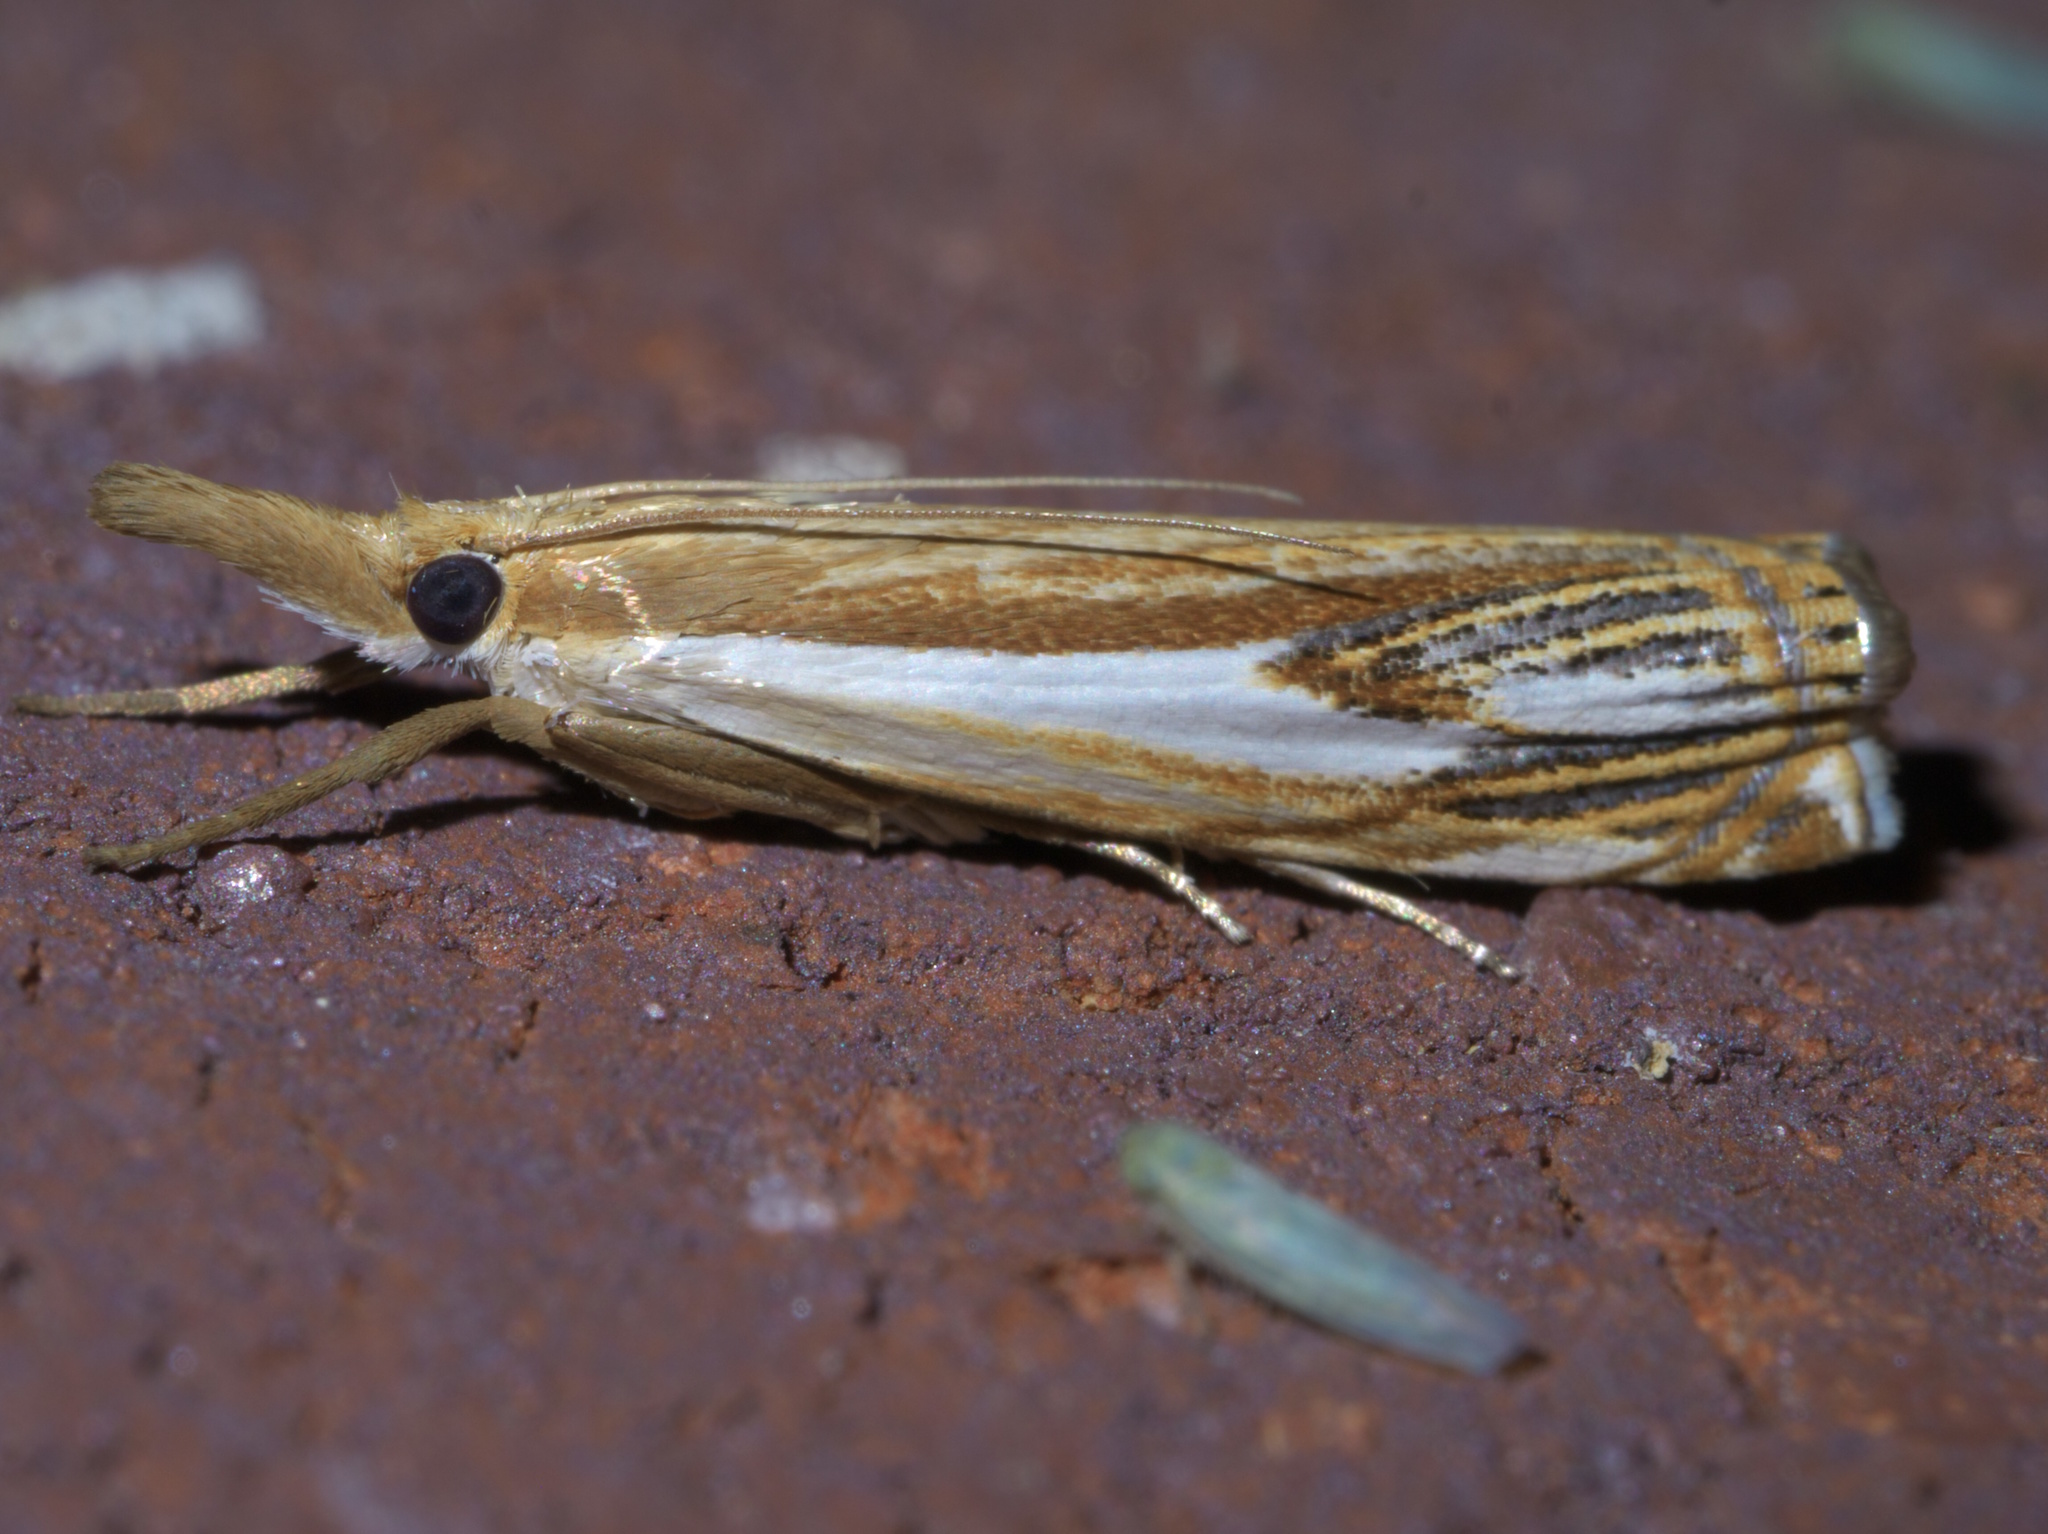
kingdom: Animalia
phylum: Arthropoda
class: Insecta
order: Lepidoptera
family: Crambidae
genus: Crambus
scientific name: Crambus agitatellus
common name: Double-banded grass-veneer
